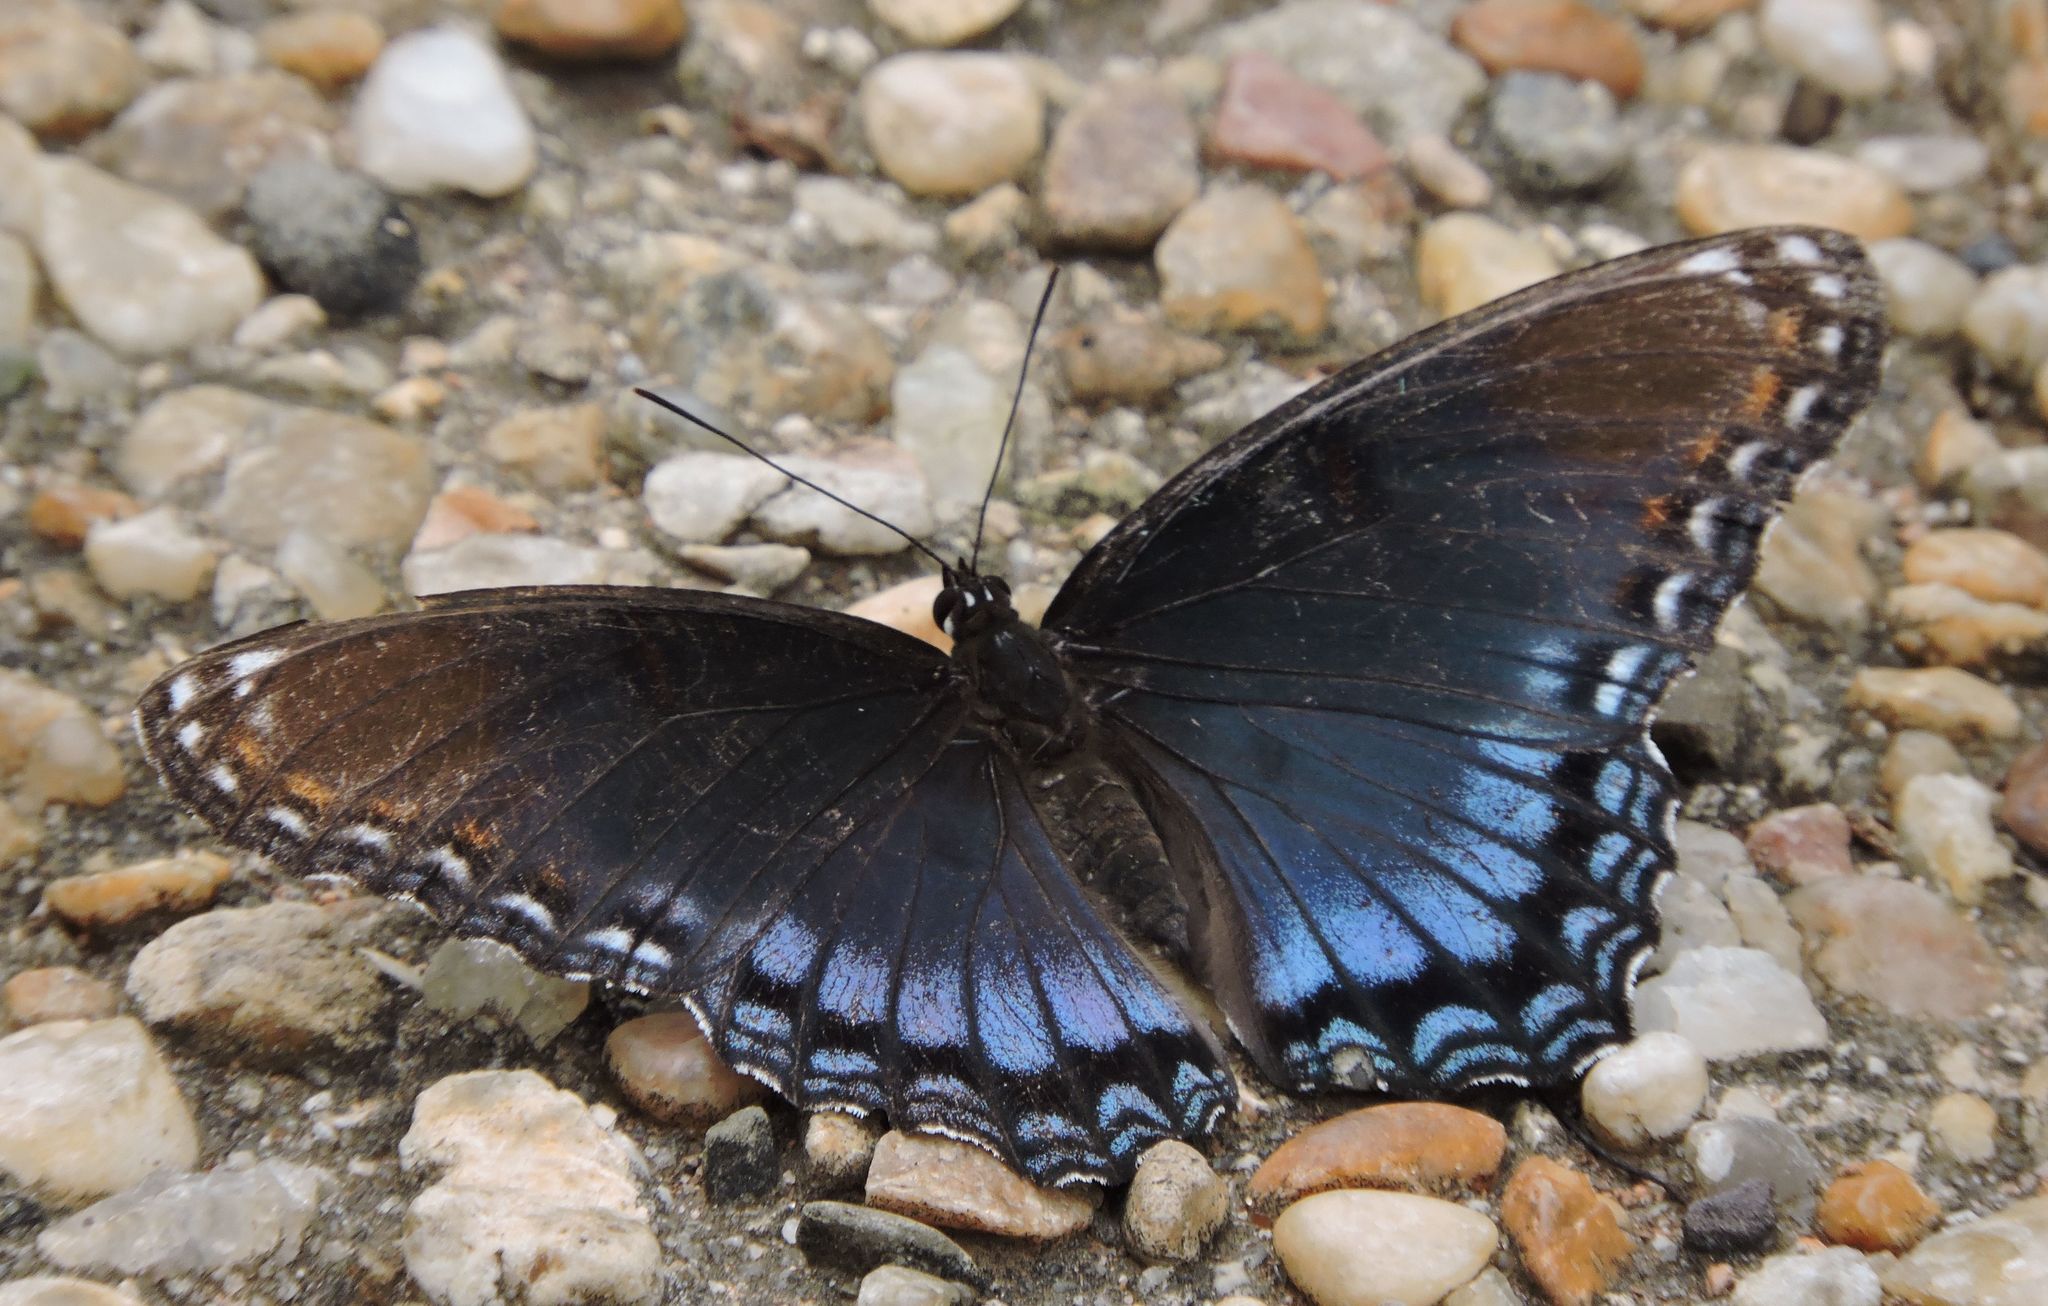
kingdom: Animalia
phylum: Arthropoda
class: Insecta
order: Lepidoptera
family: Nymphalidae
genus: Limenitis
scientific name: Limenitis astyanax
